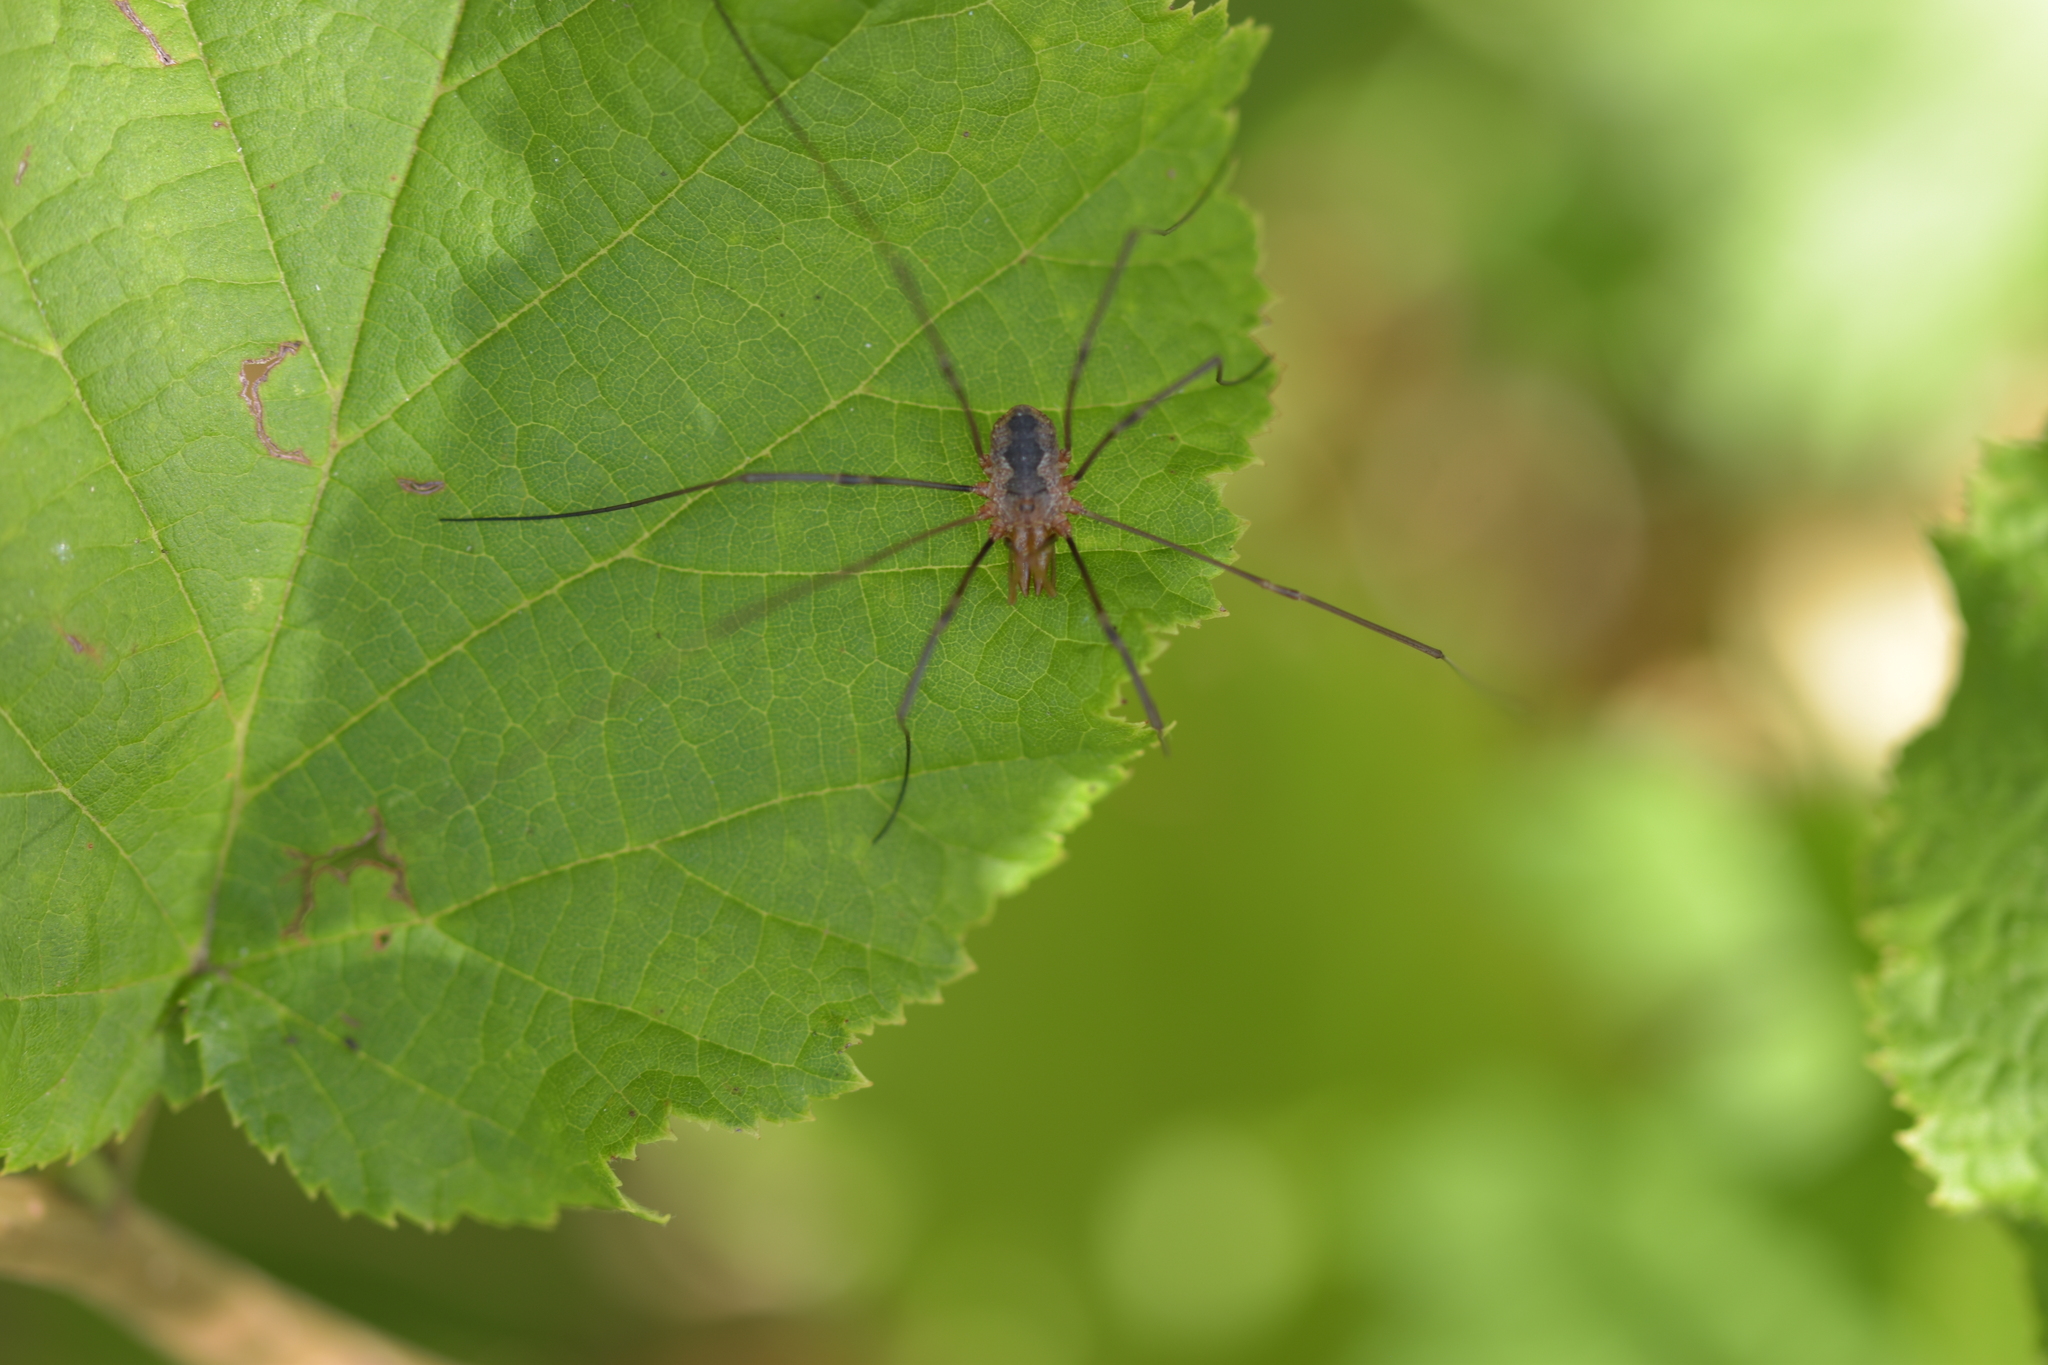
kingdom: Animalia
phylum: Arthropoda
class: Arachnida
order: Opiliones
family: Phalangiidae
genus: Phalangium
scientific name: Phalangium opilio
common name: Daddy longleg
